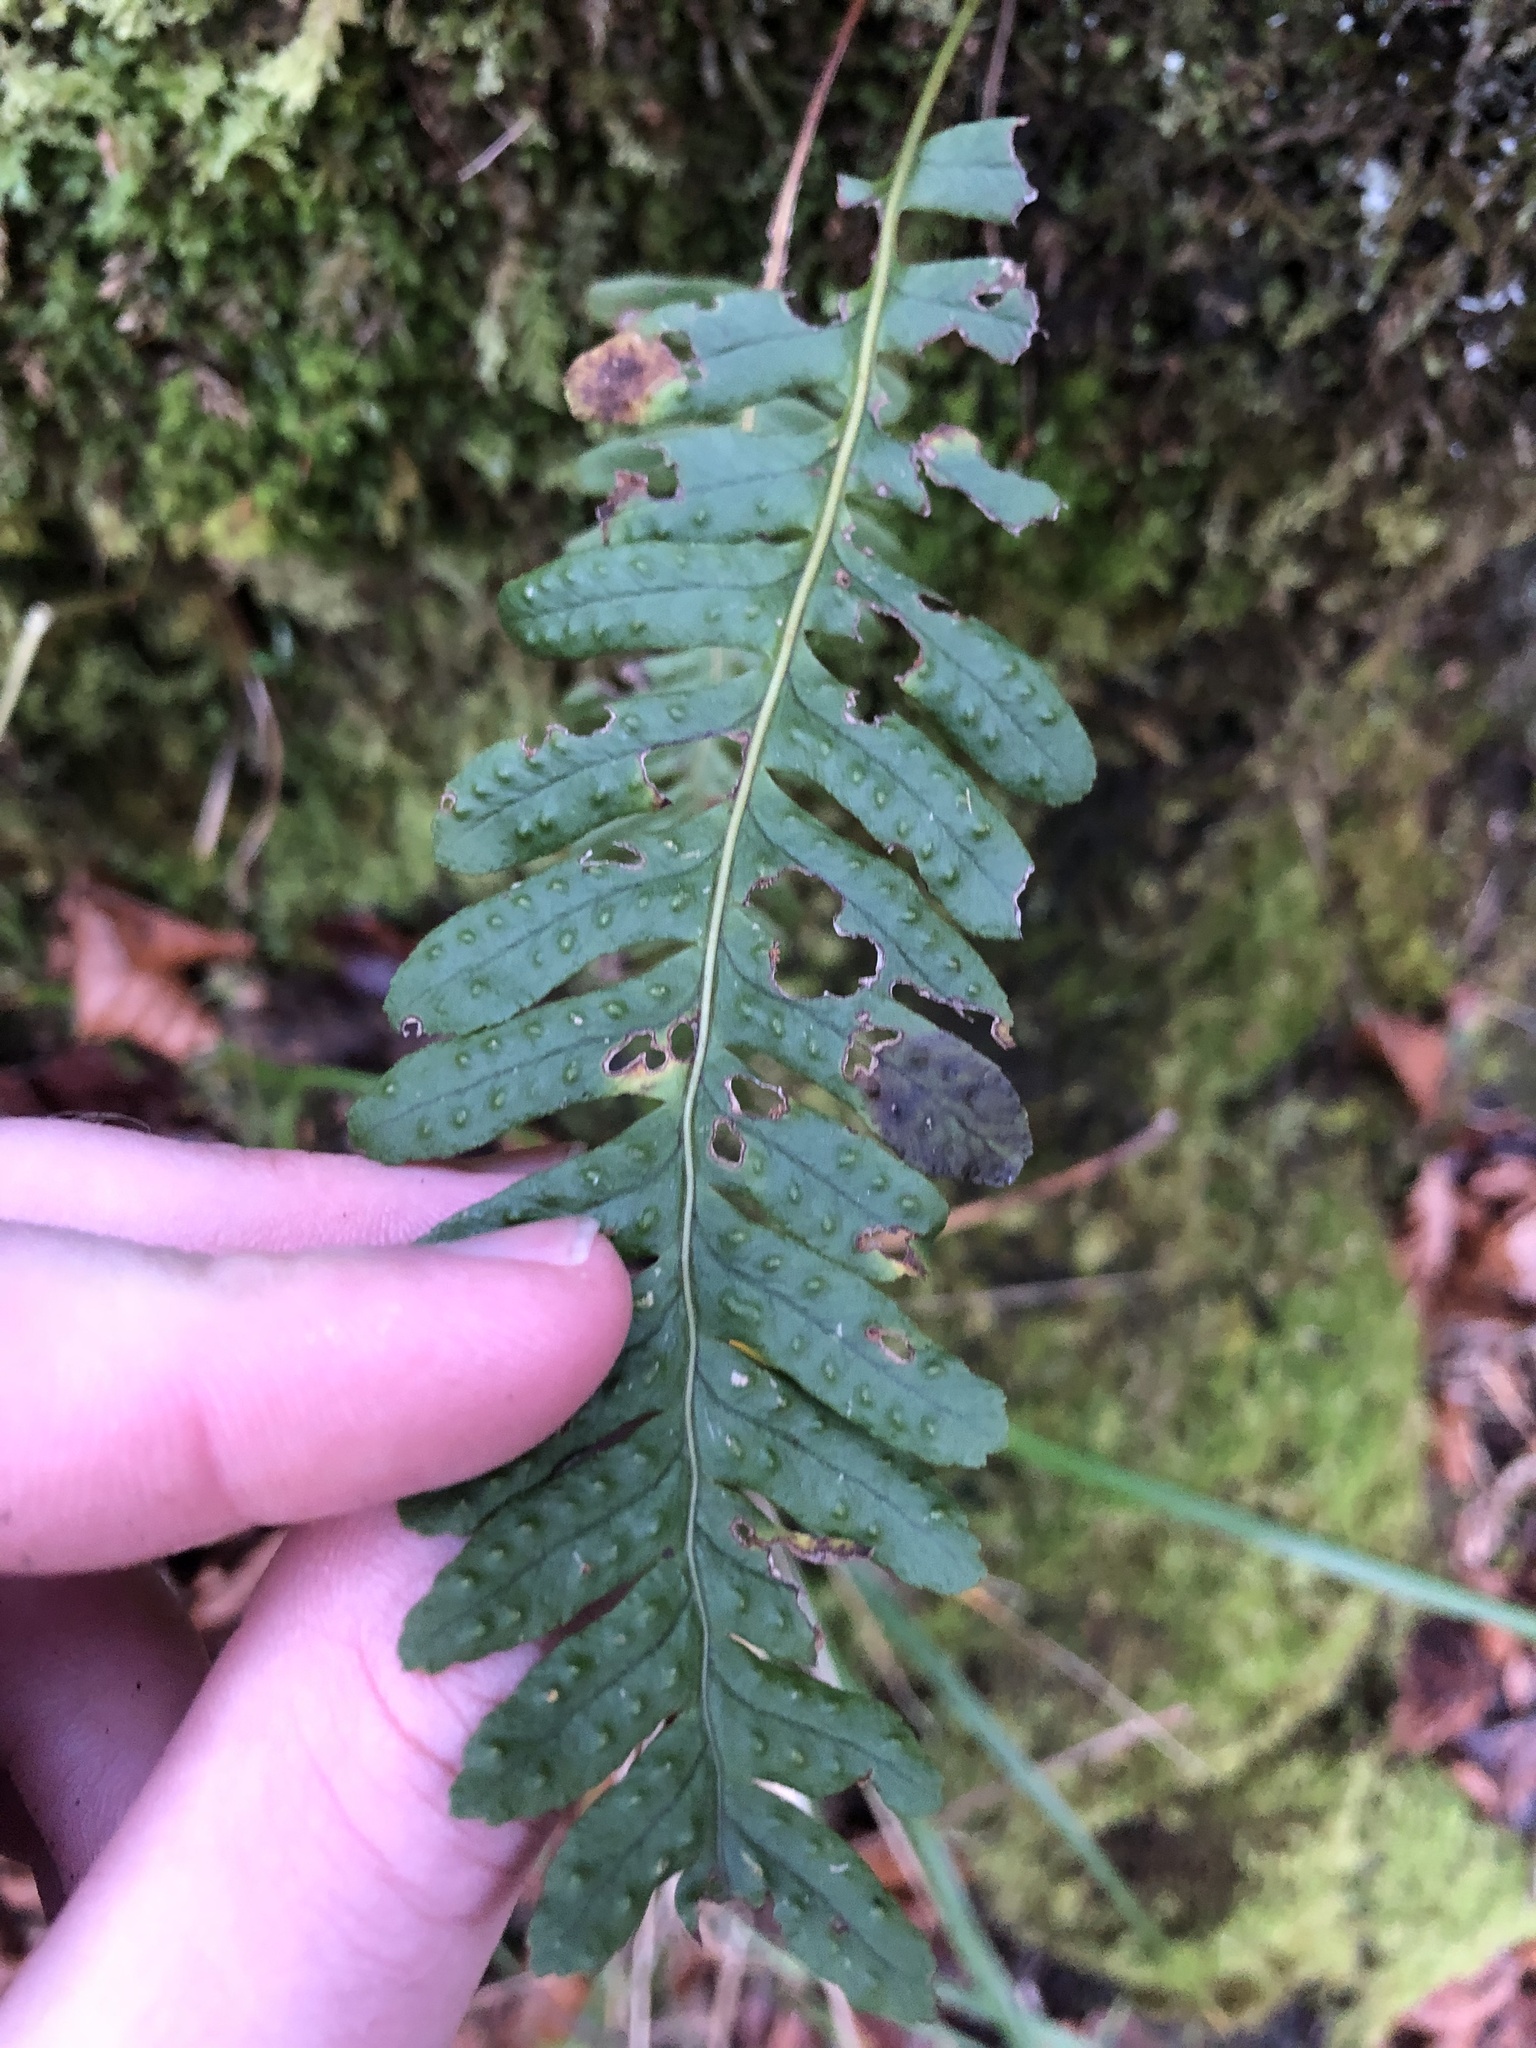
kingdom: Plantae
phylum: Tracheophyta
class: Polypodiopsida
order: Polypodiales
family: Polypodiaceae
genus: Polypodium
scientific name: Polypodium vulgare
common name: Common polypody
